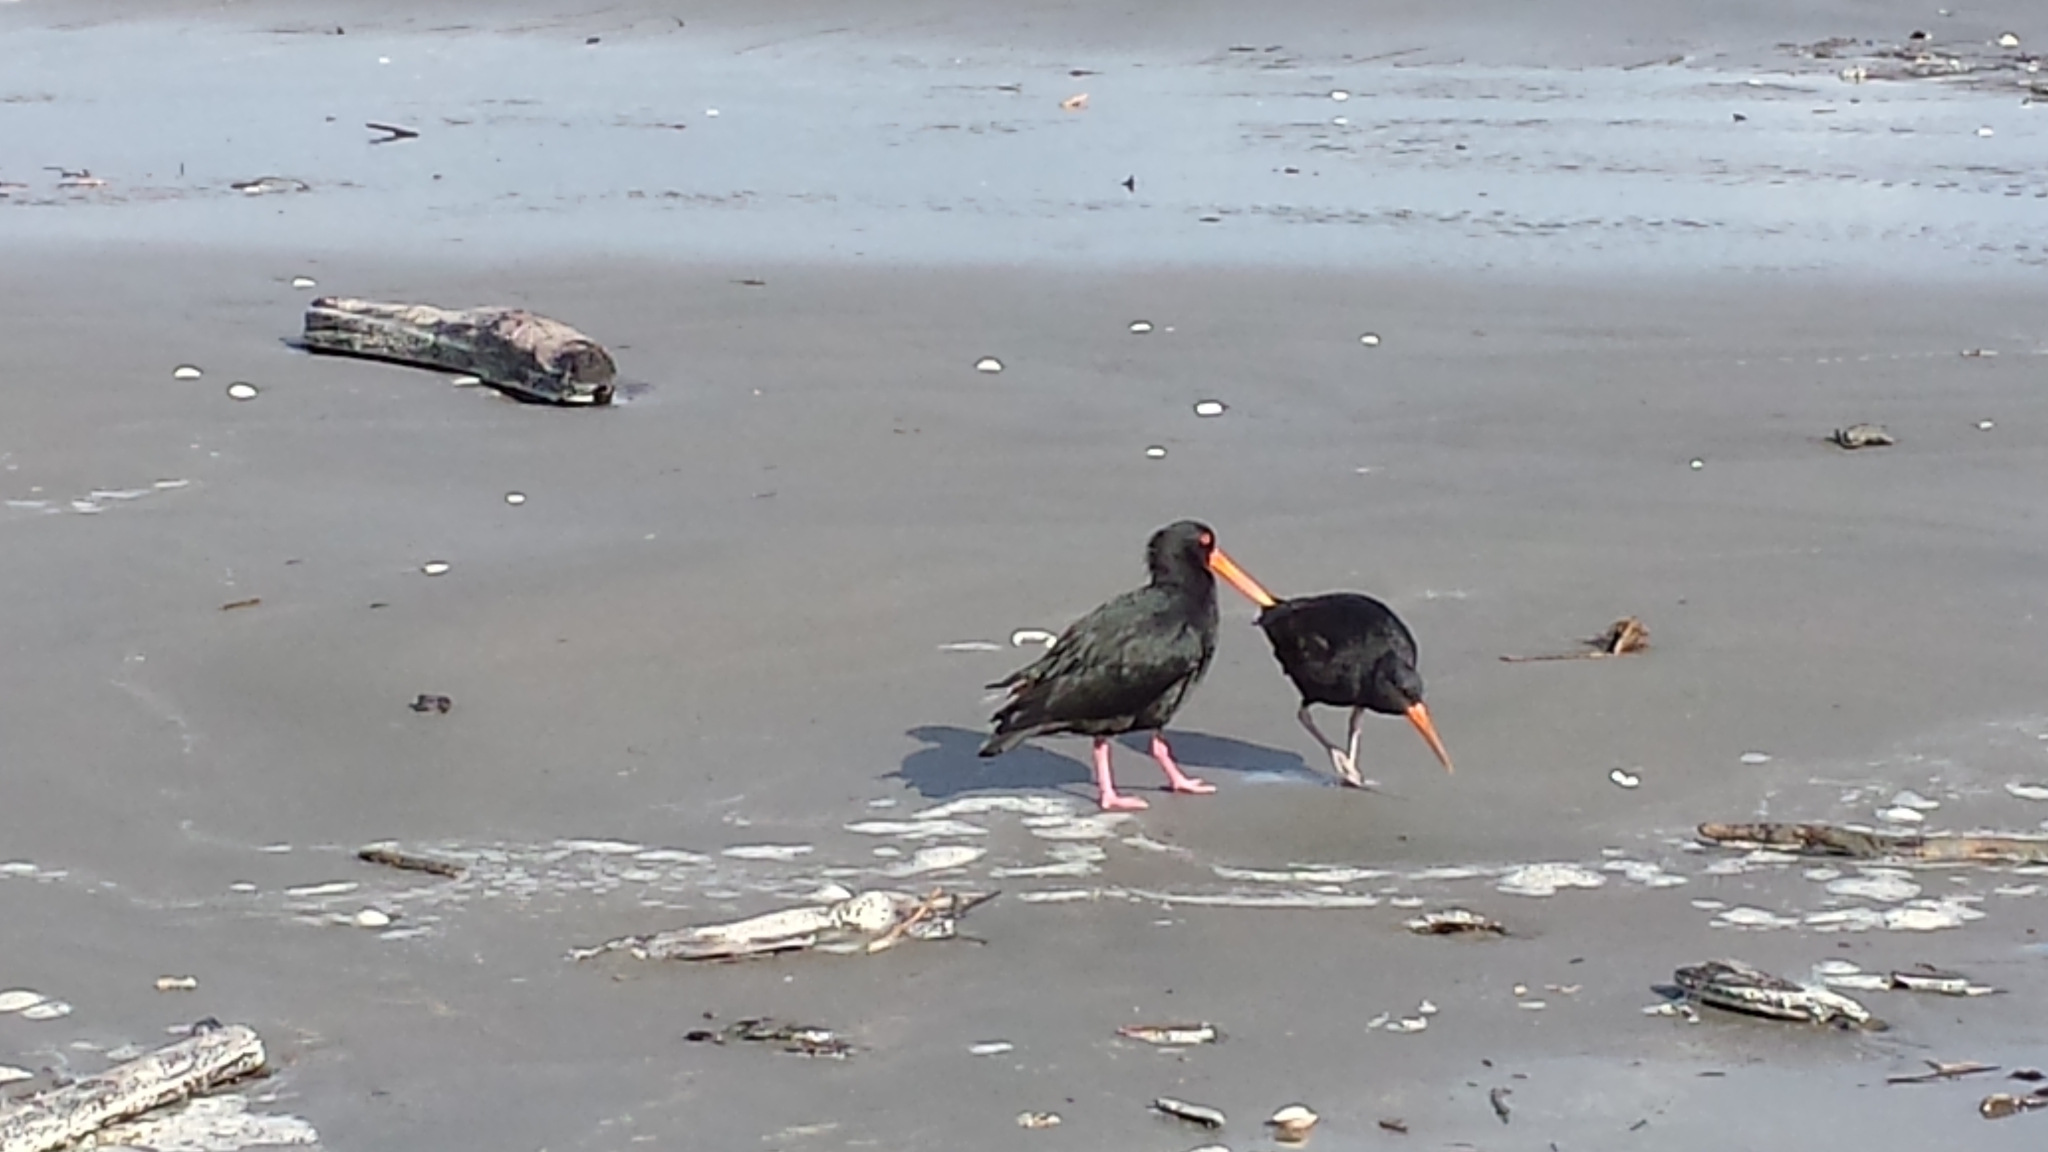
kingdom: Animalia
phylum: Chordata
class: Aves
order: Charadriiformes
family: Haematopodidae
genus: Haematopus
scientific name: Haematopus unicolor
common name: Variable oystercatcher
